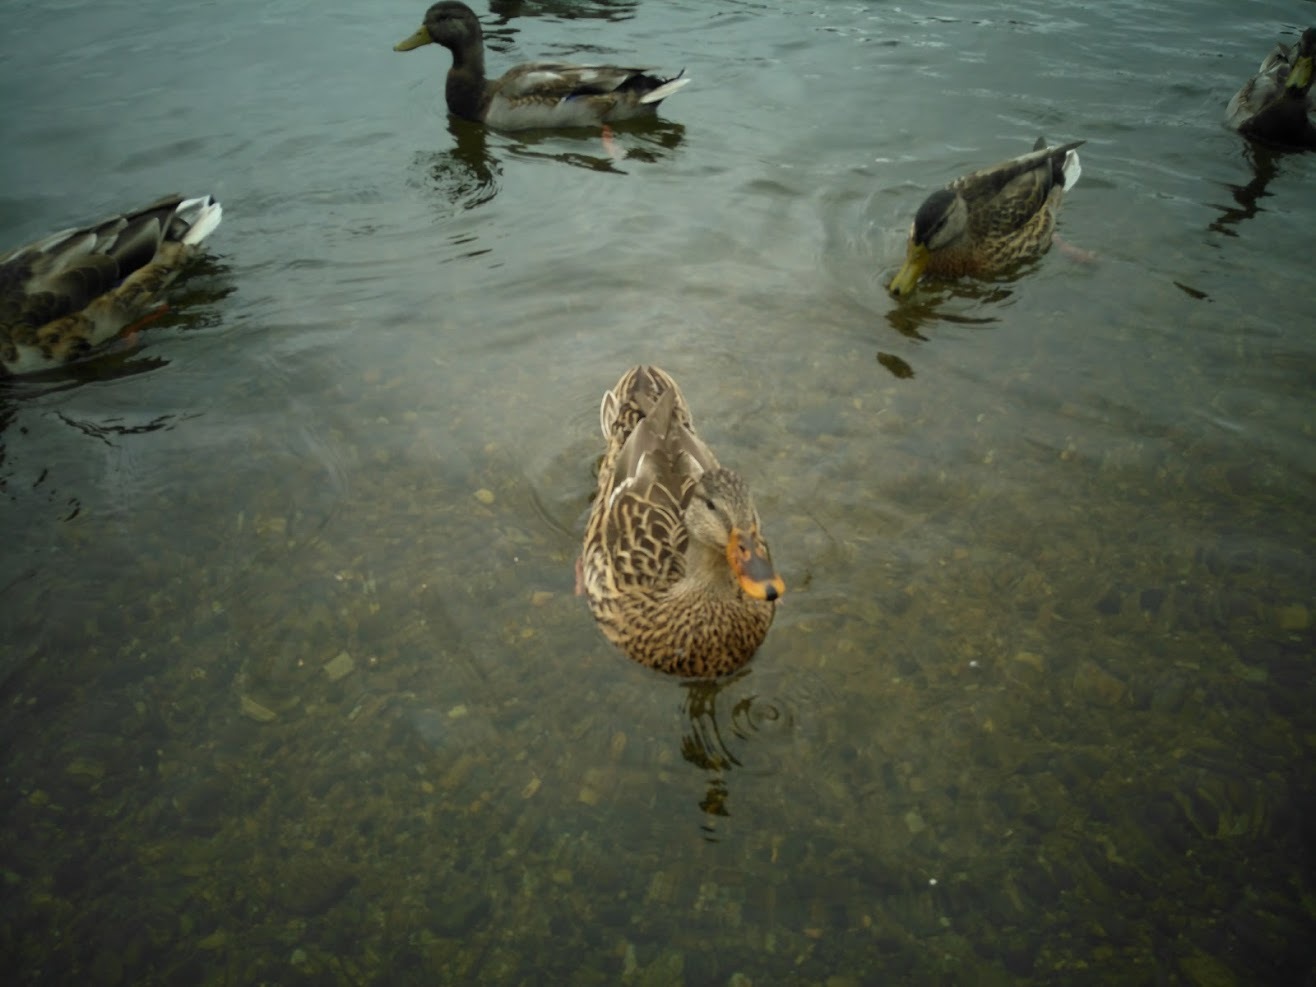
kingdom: Animalia
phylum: Chordata
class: Aves
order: Anseriformes
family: Anatidae
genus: Anas
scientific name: Anas platyrhynchos
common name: Mallard
